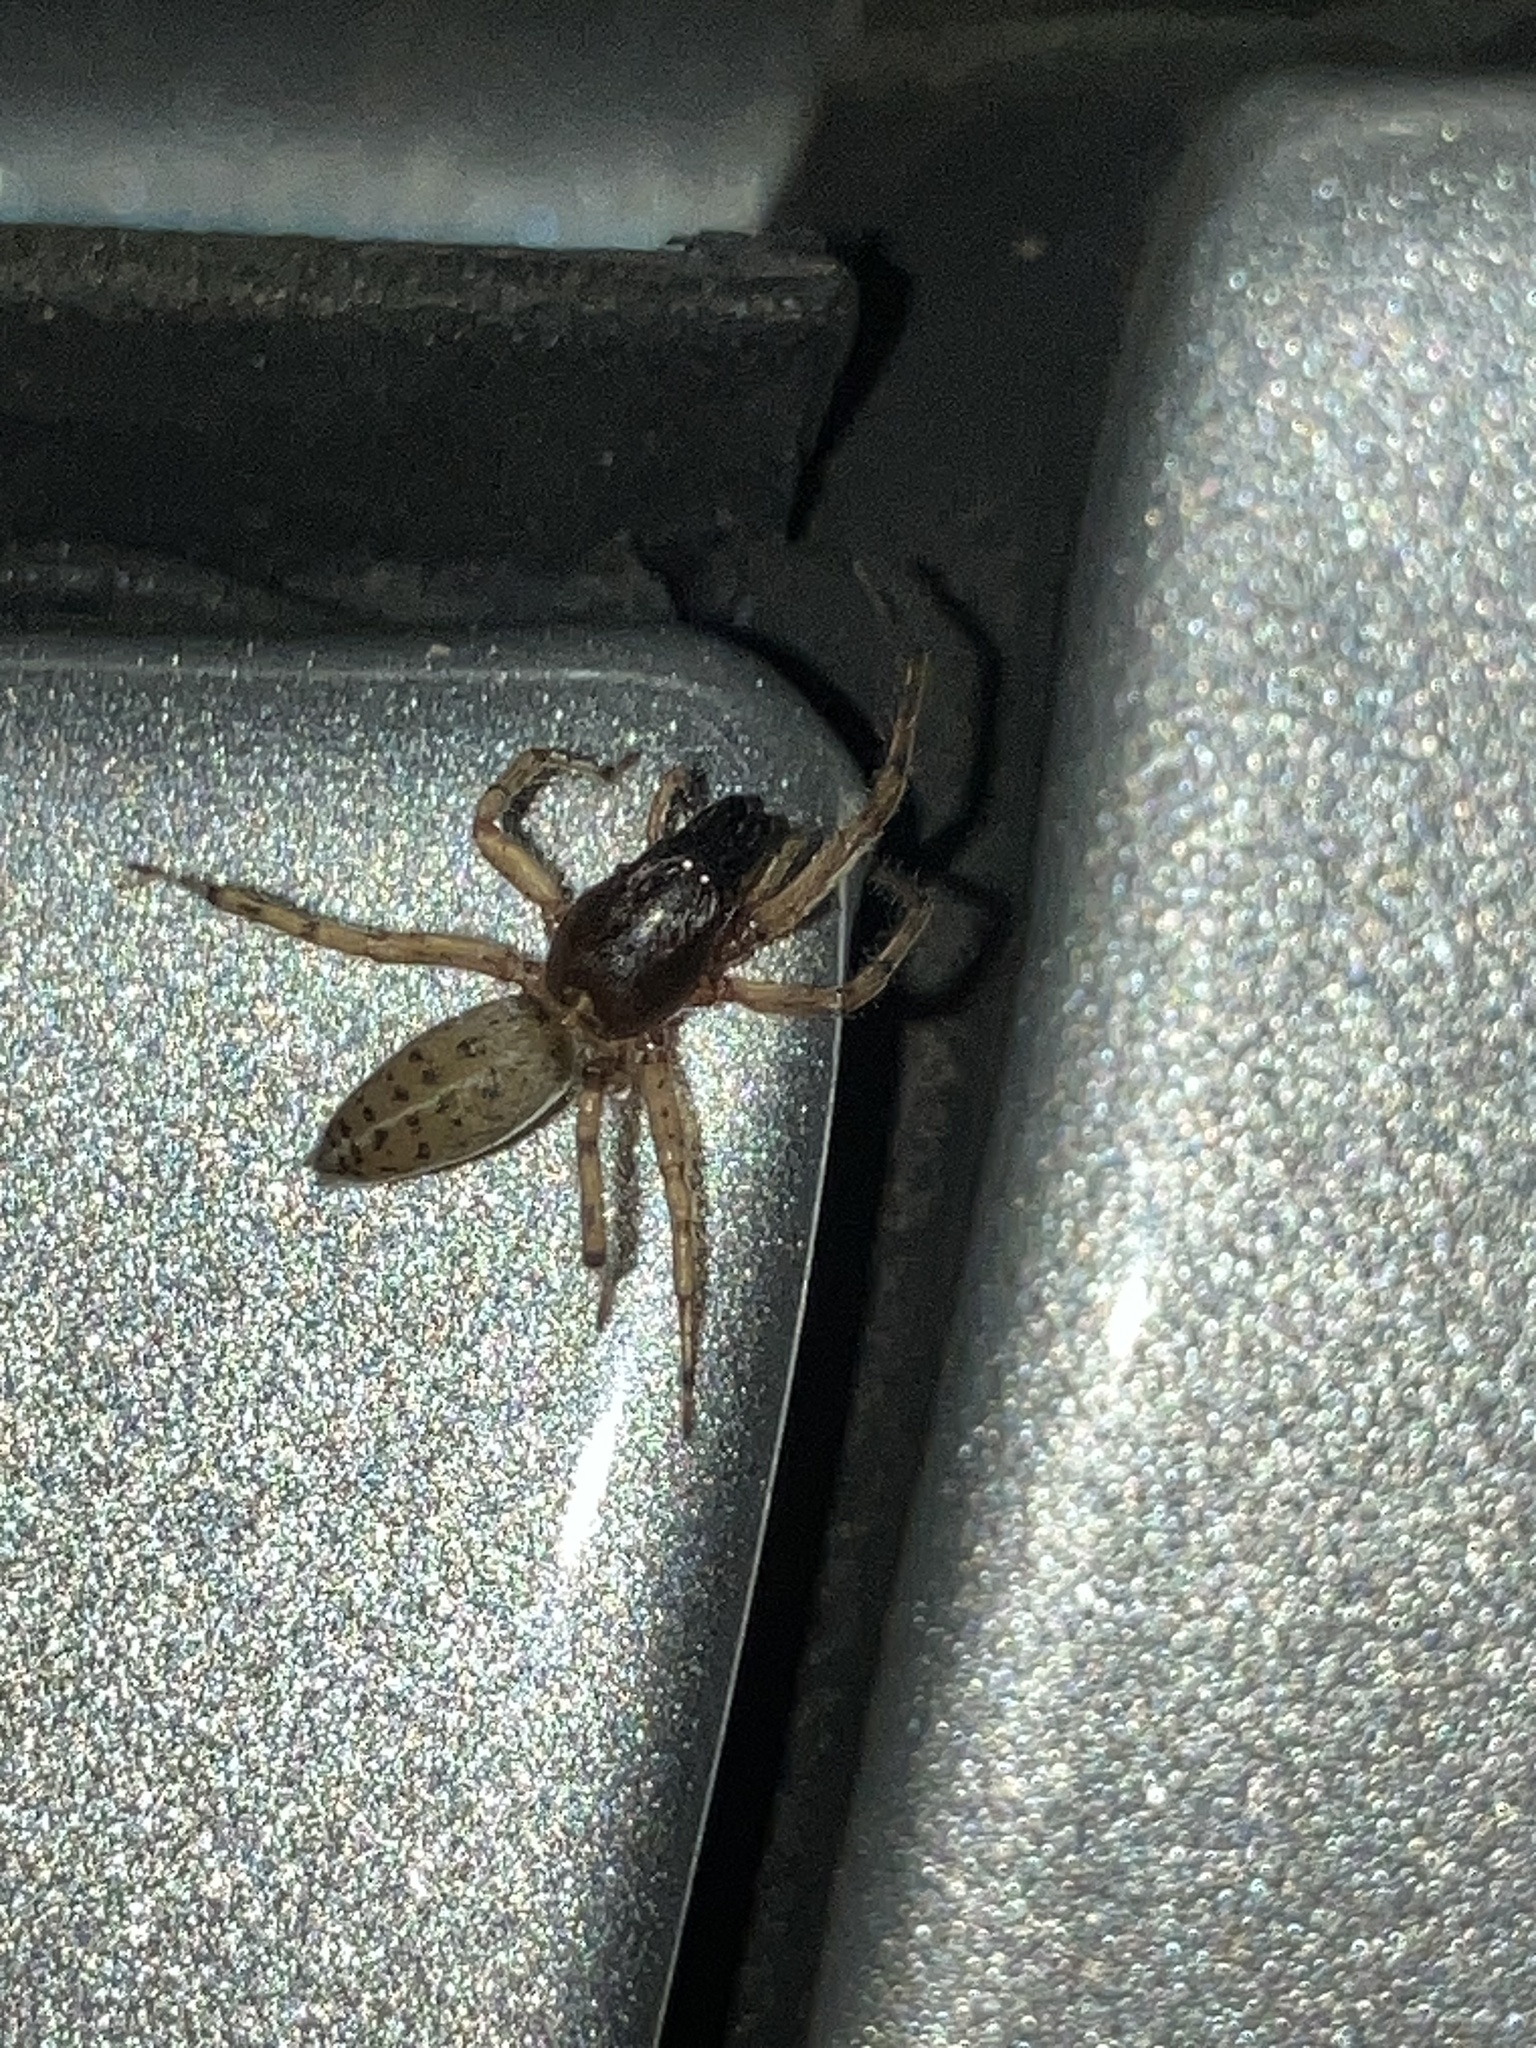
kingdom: Animalia
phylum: Arthropoda
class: Arachnida
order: Araneae
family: Anyphaenidae
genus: Lupettiana
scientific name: Lupettiana mordax
